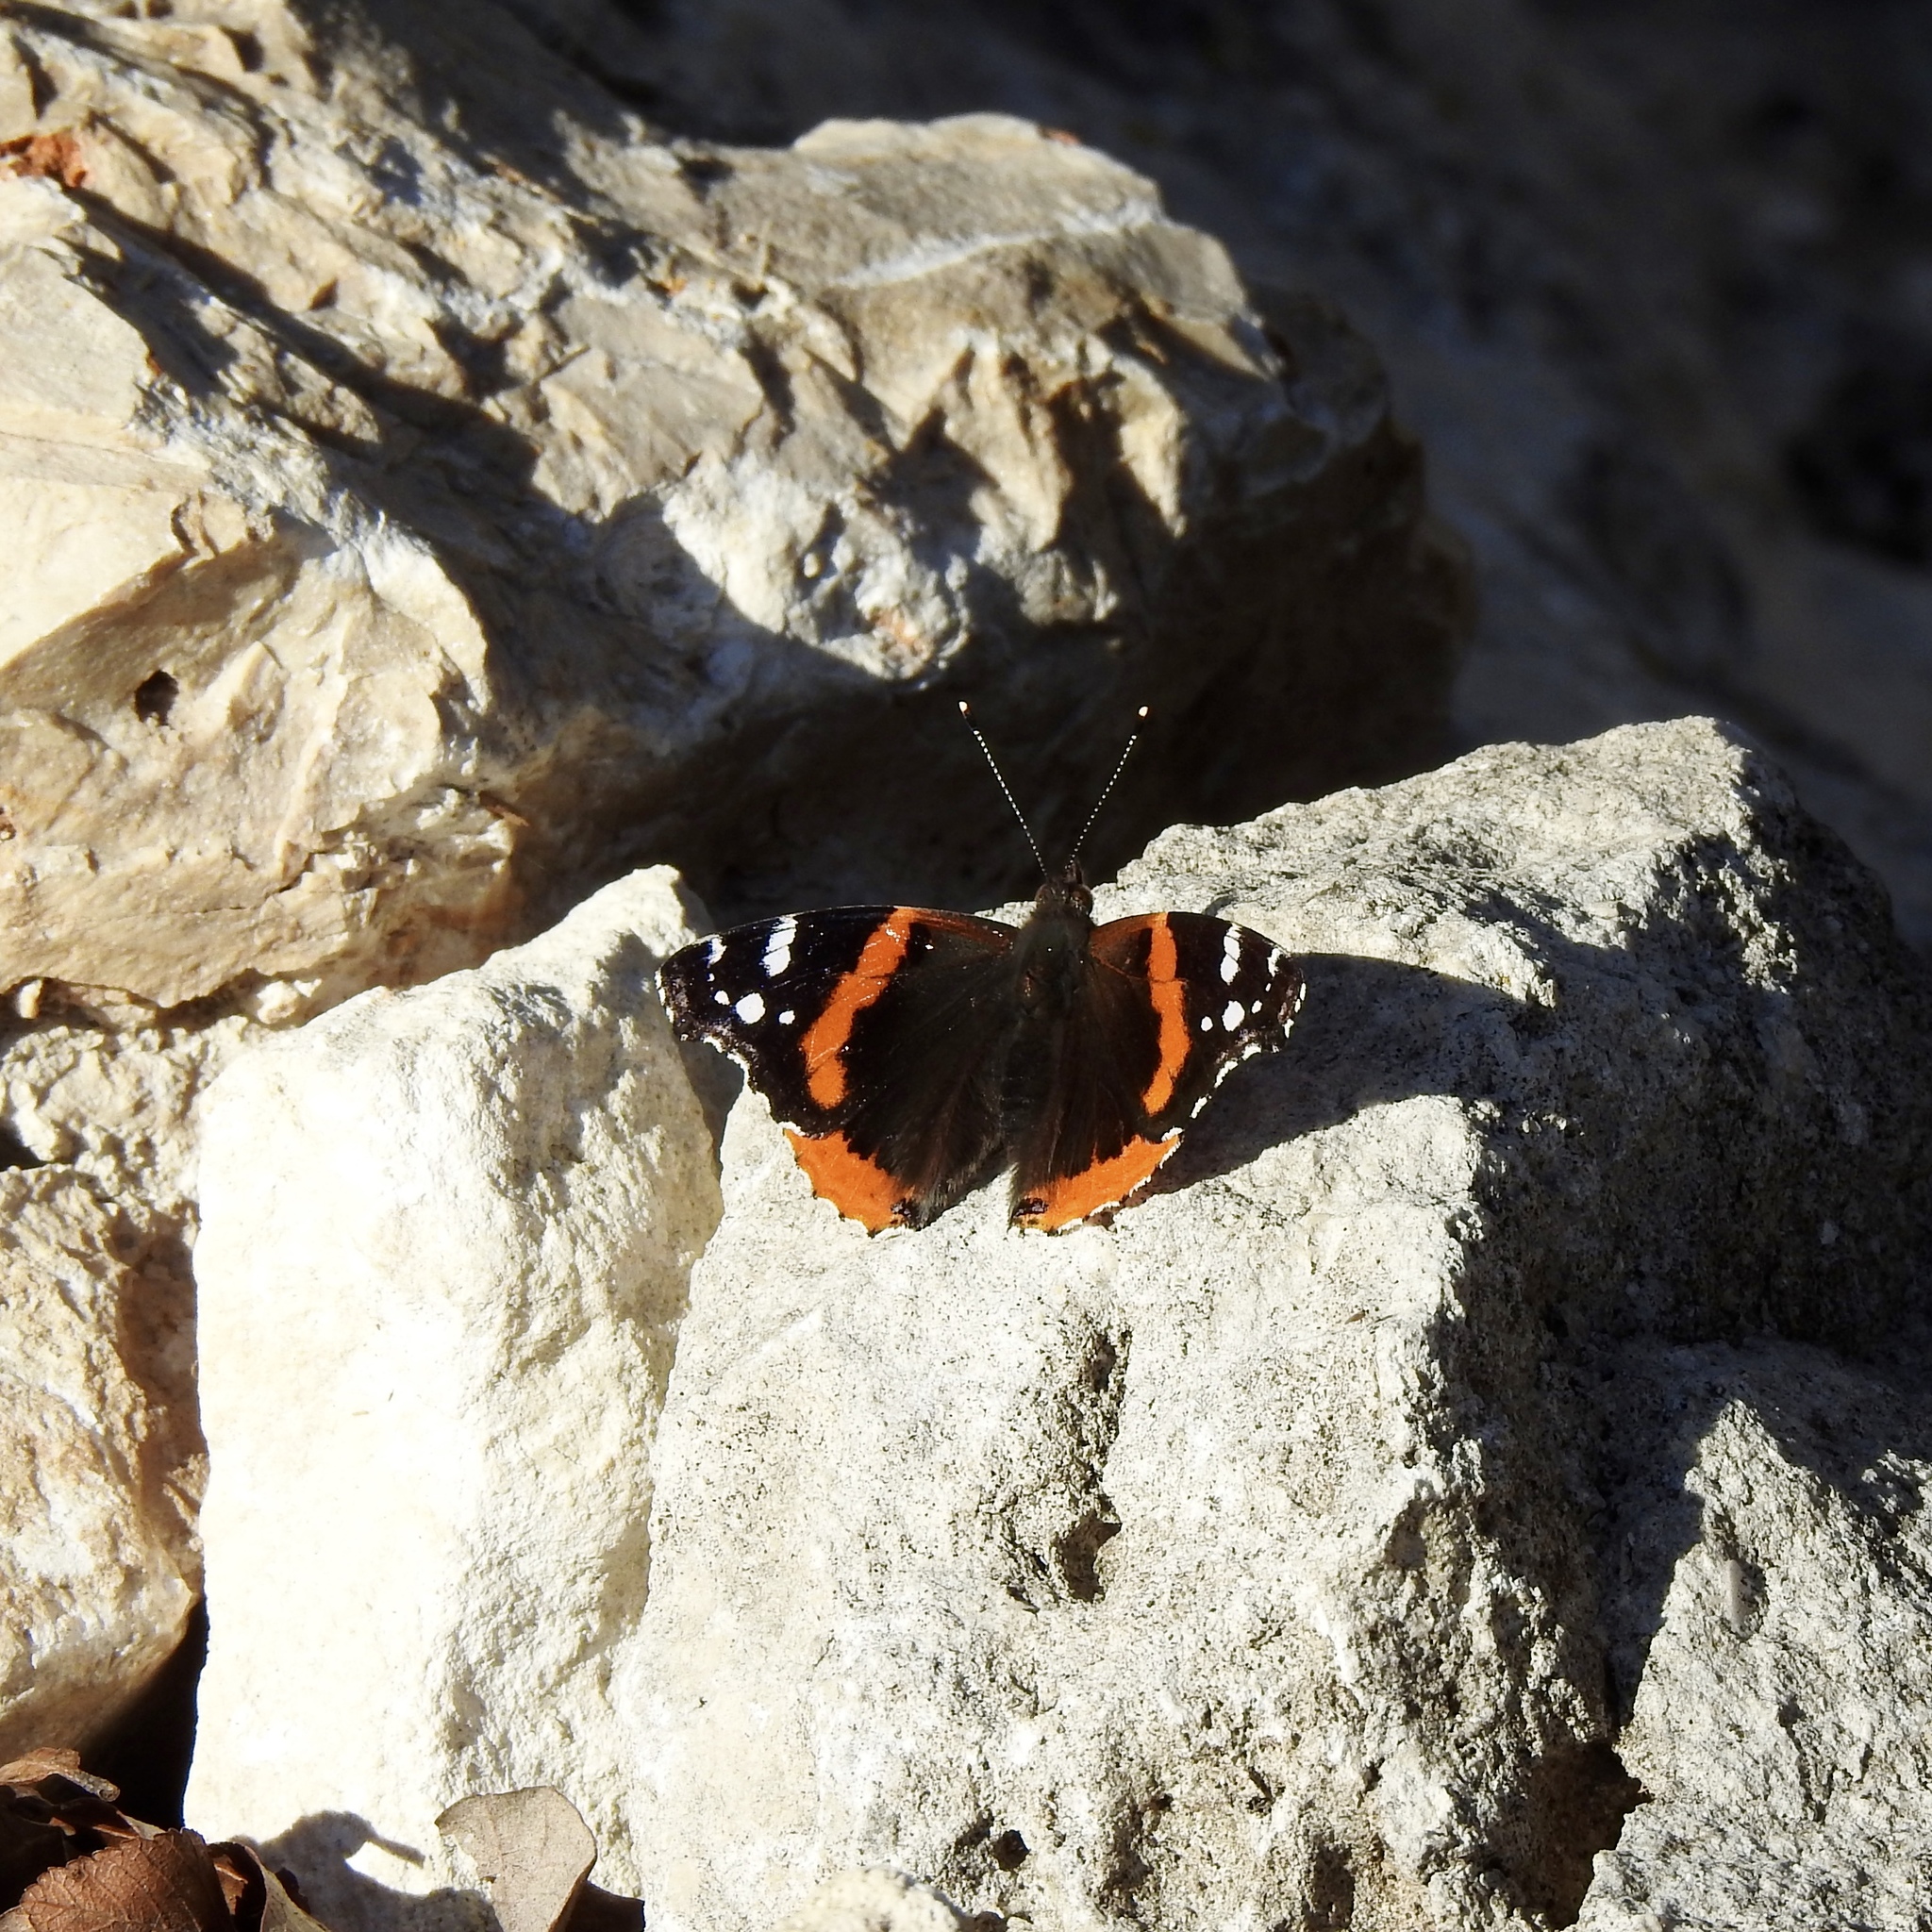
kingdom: Animalia
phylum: Arthropoda
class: Insecta
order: Lepidoptera
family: Nymphalidae
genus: Vanessa
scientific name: Vanessa atalanta
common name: Red admiral
